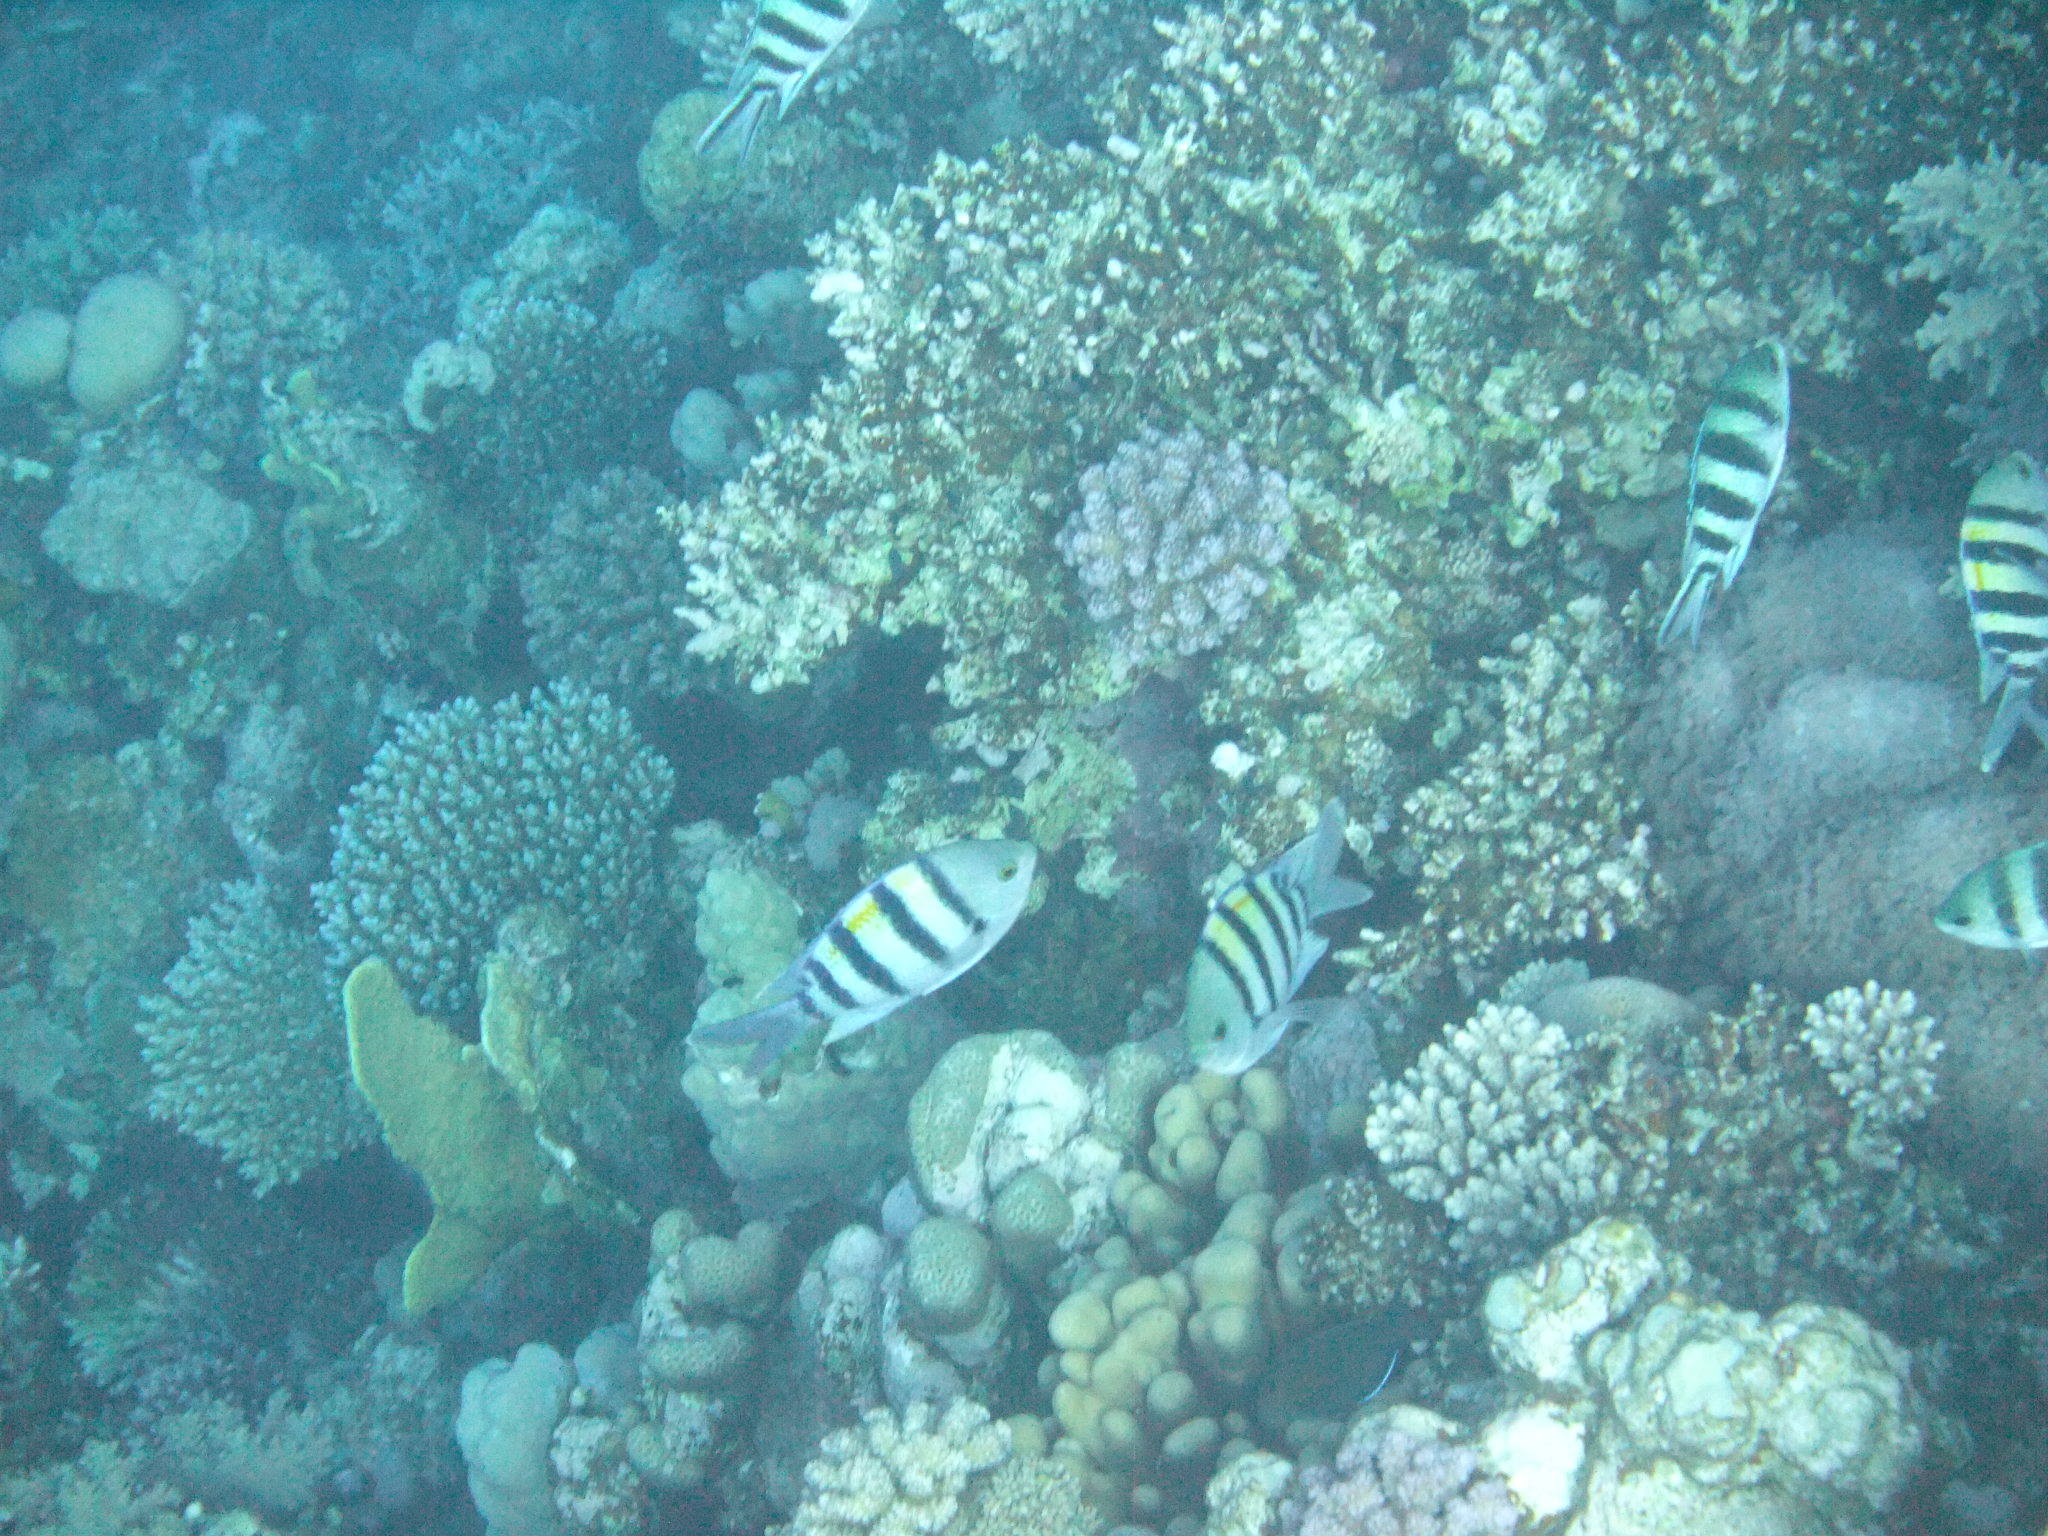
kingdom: Animalia
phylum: Chordata
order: Perciformes
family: Pomacentridae
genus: Abudefduf
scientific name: Abudefduf vaigiensis
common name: Indo-pacific sergeant
